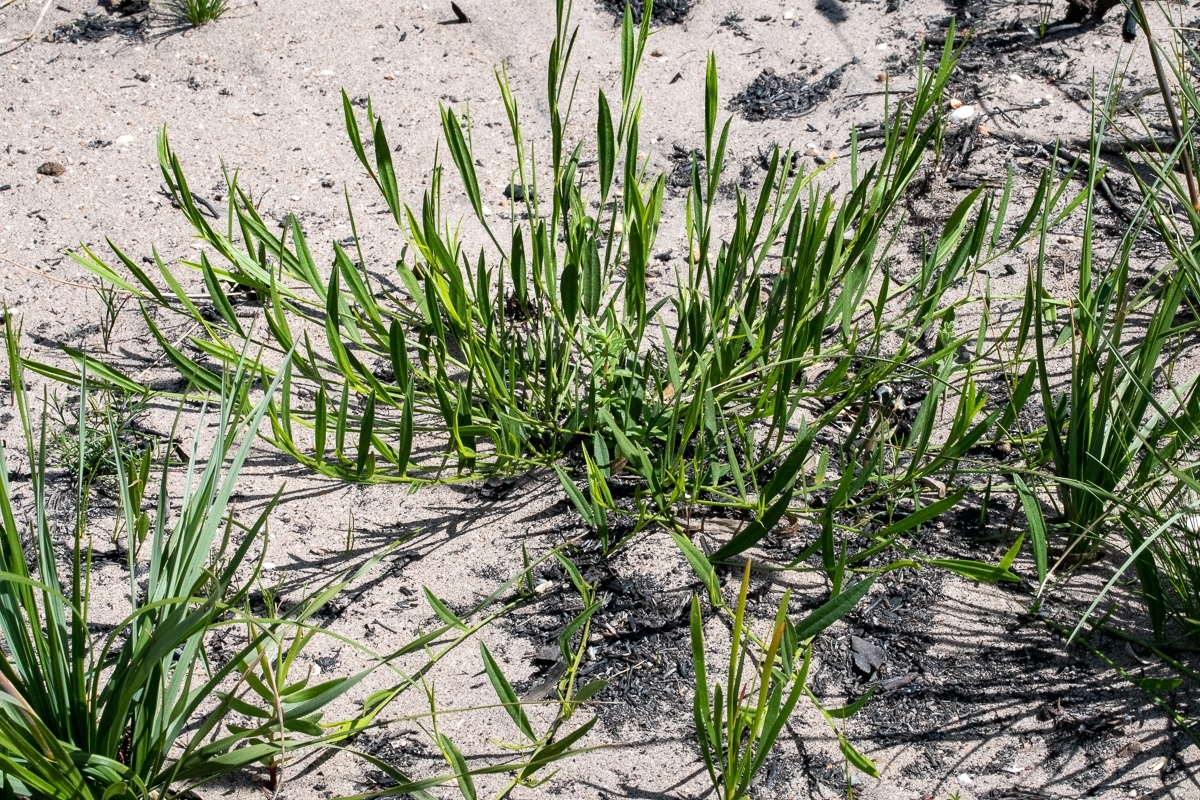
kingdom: Plantae
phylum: Tracheophyta
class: Magnoliopsida
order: Fabales
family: Fabaceae
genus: Psoralea
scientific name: Psoralea laxa
